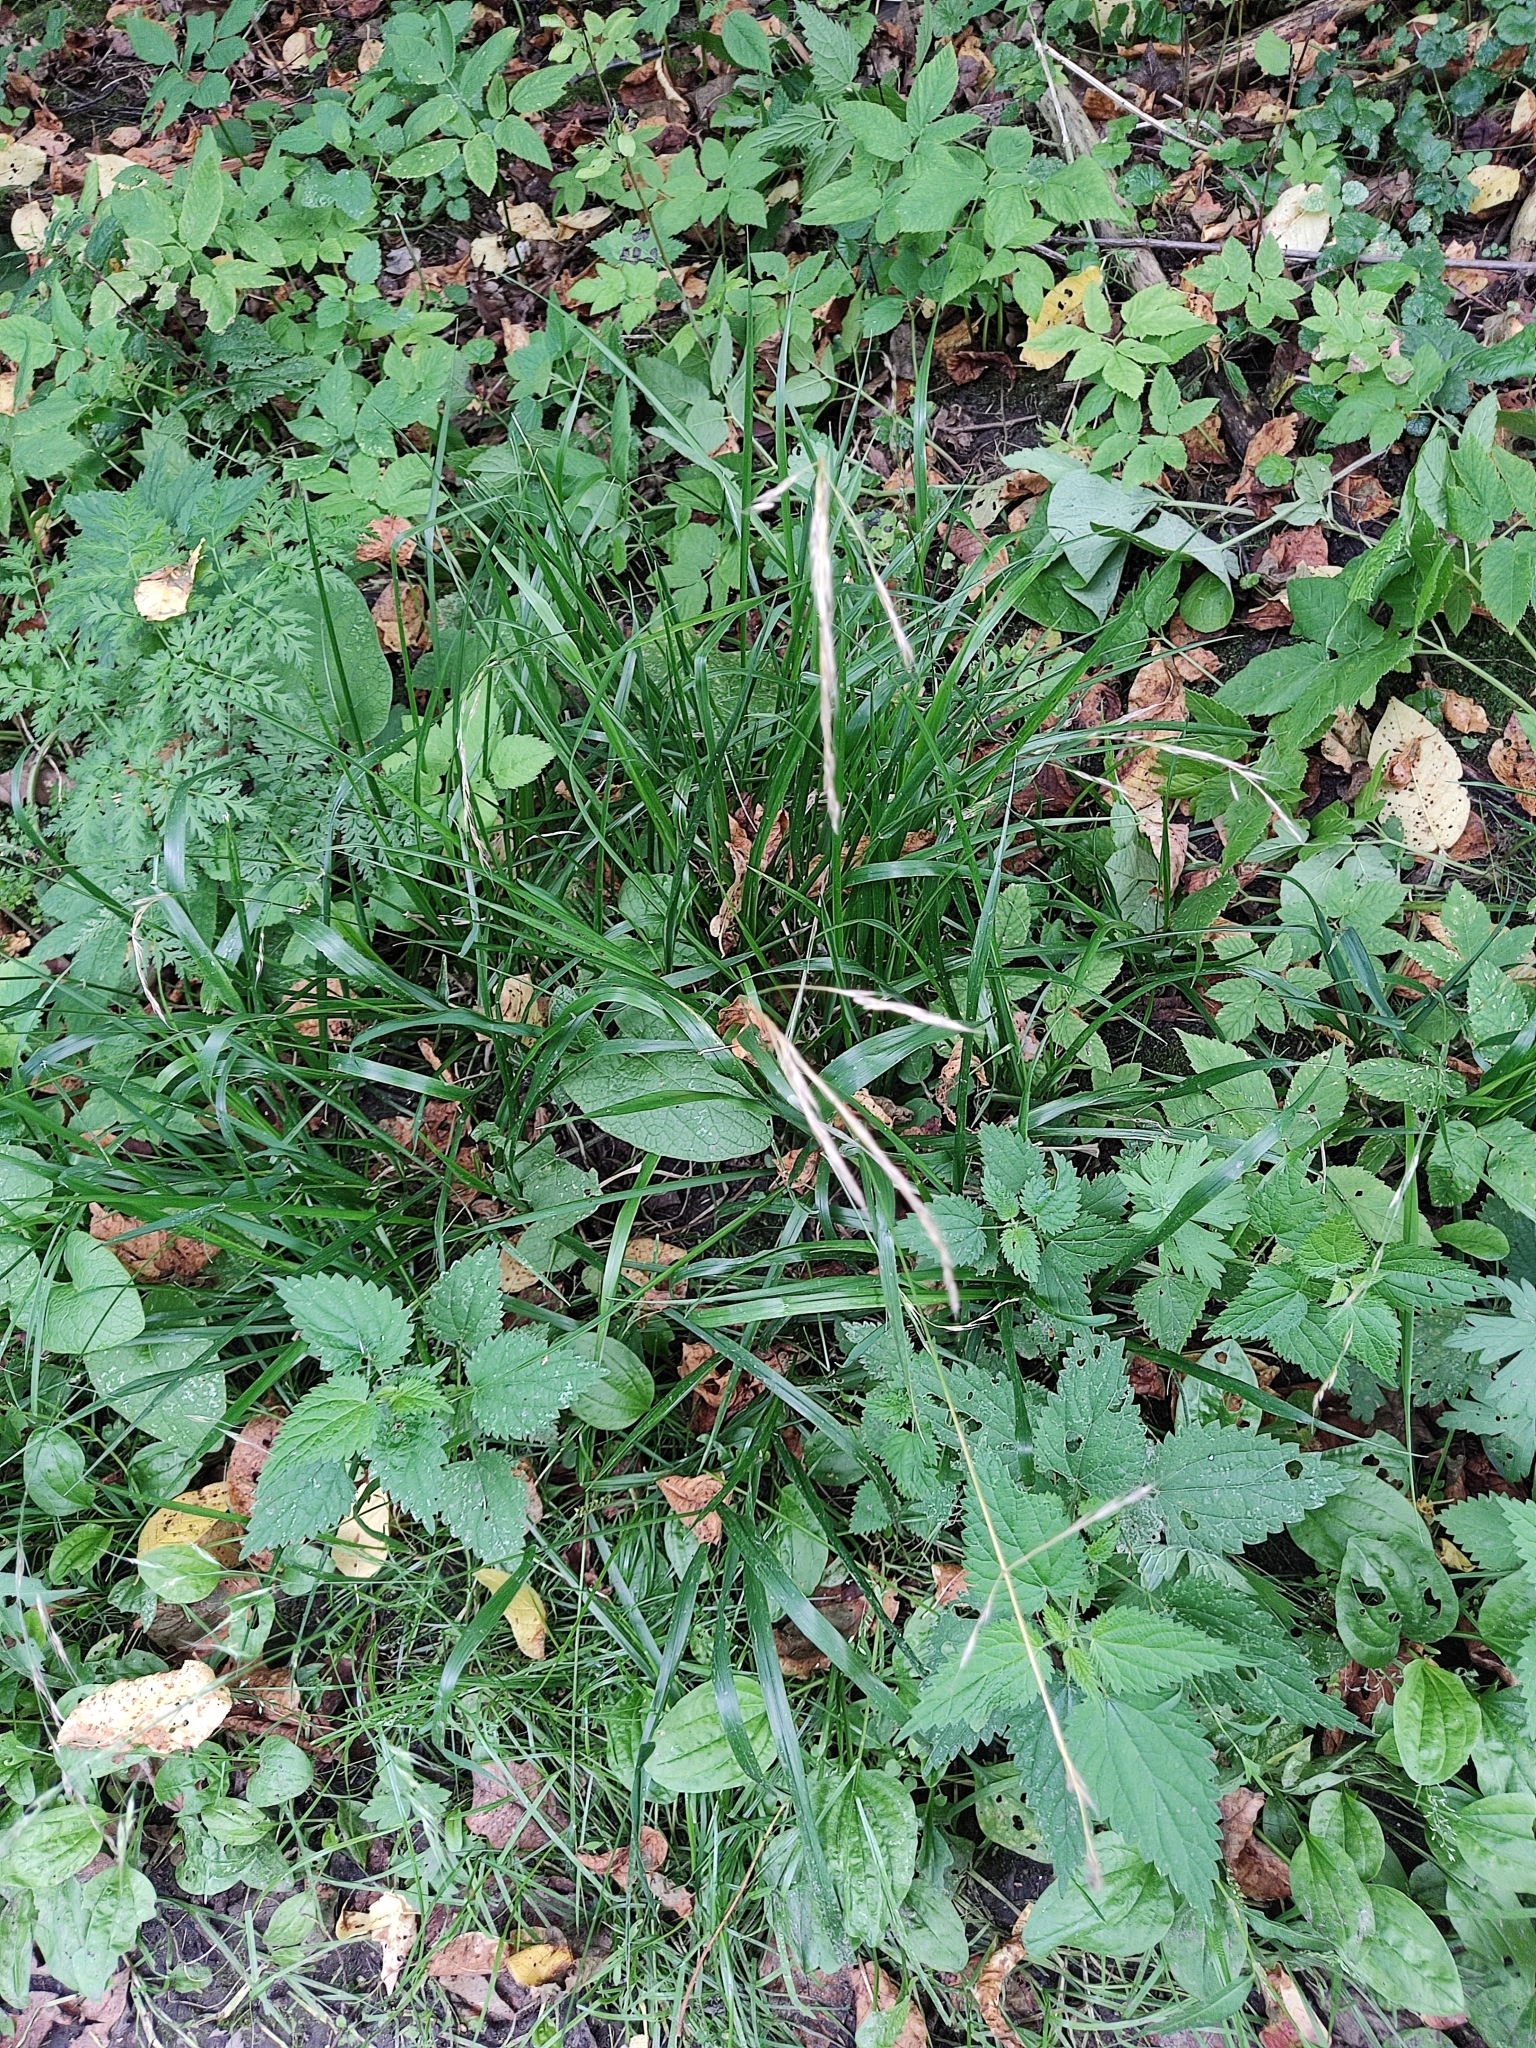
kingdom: Plantae
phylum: Tracheophyta
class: Liliopsida
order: Poales
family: Poaceae
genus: Lolium
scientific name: Lolium giganteum
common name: Giant fescue
